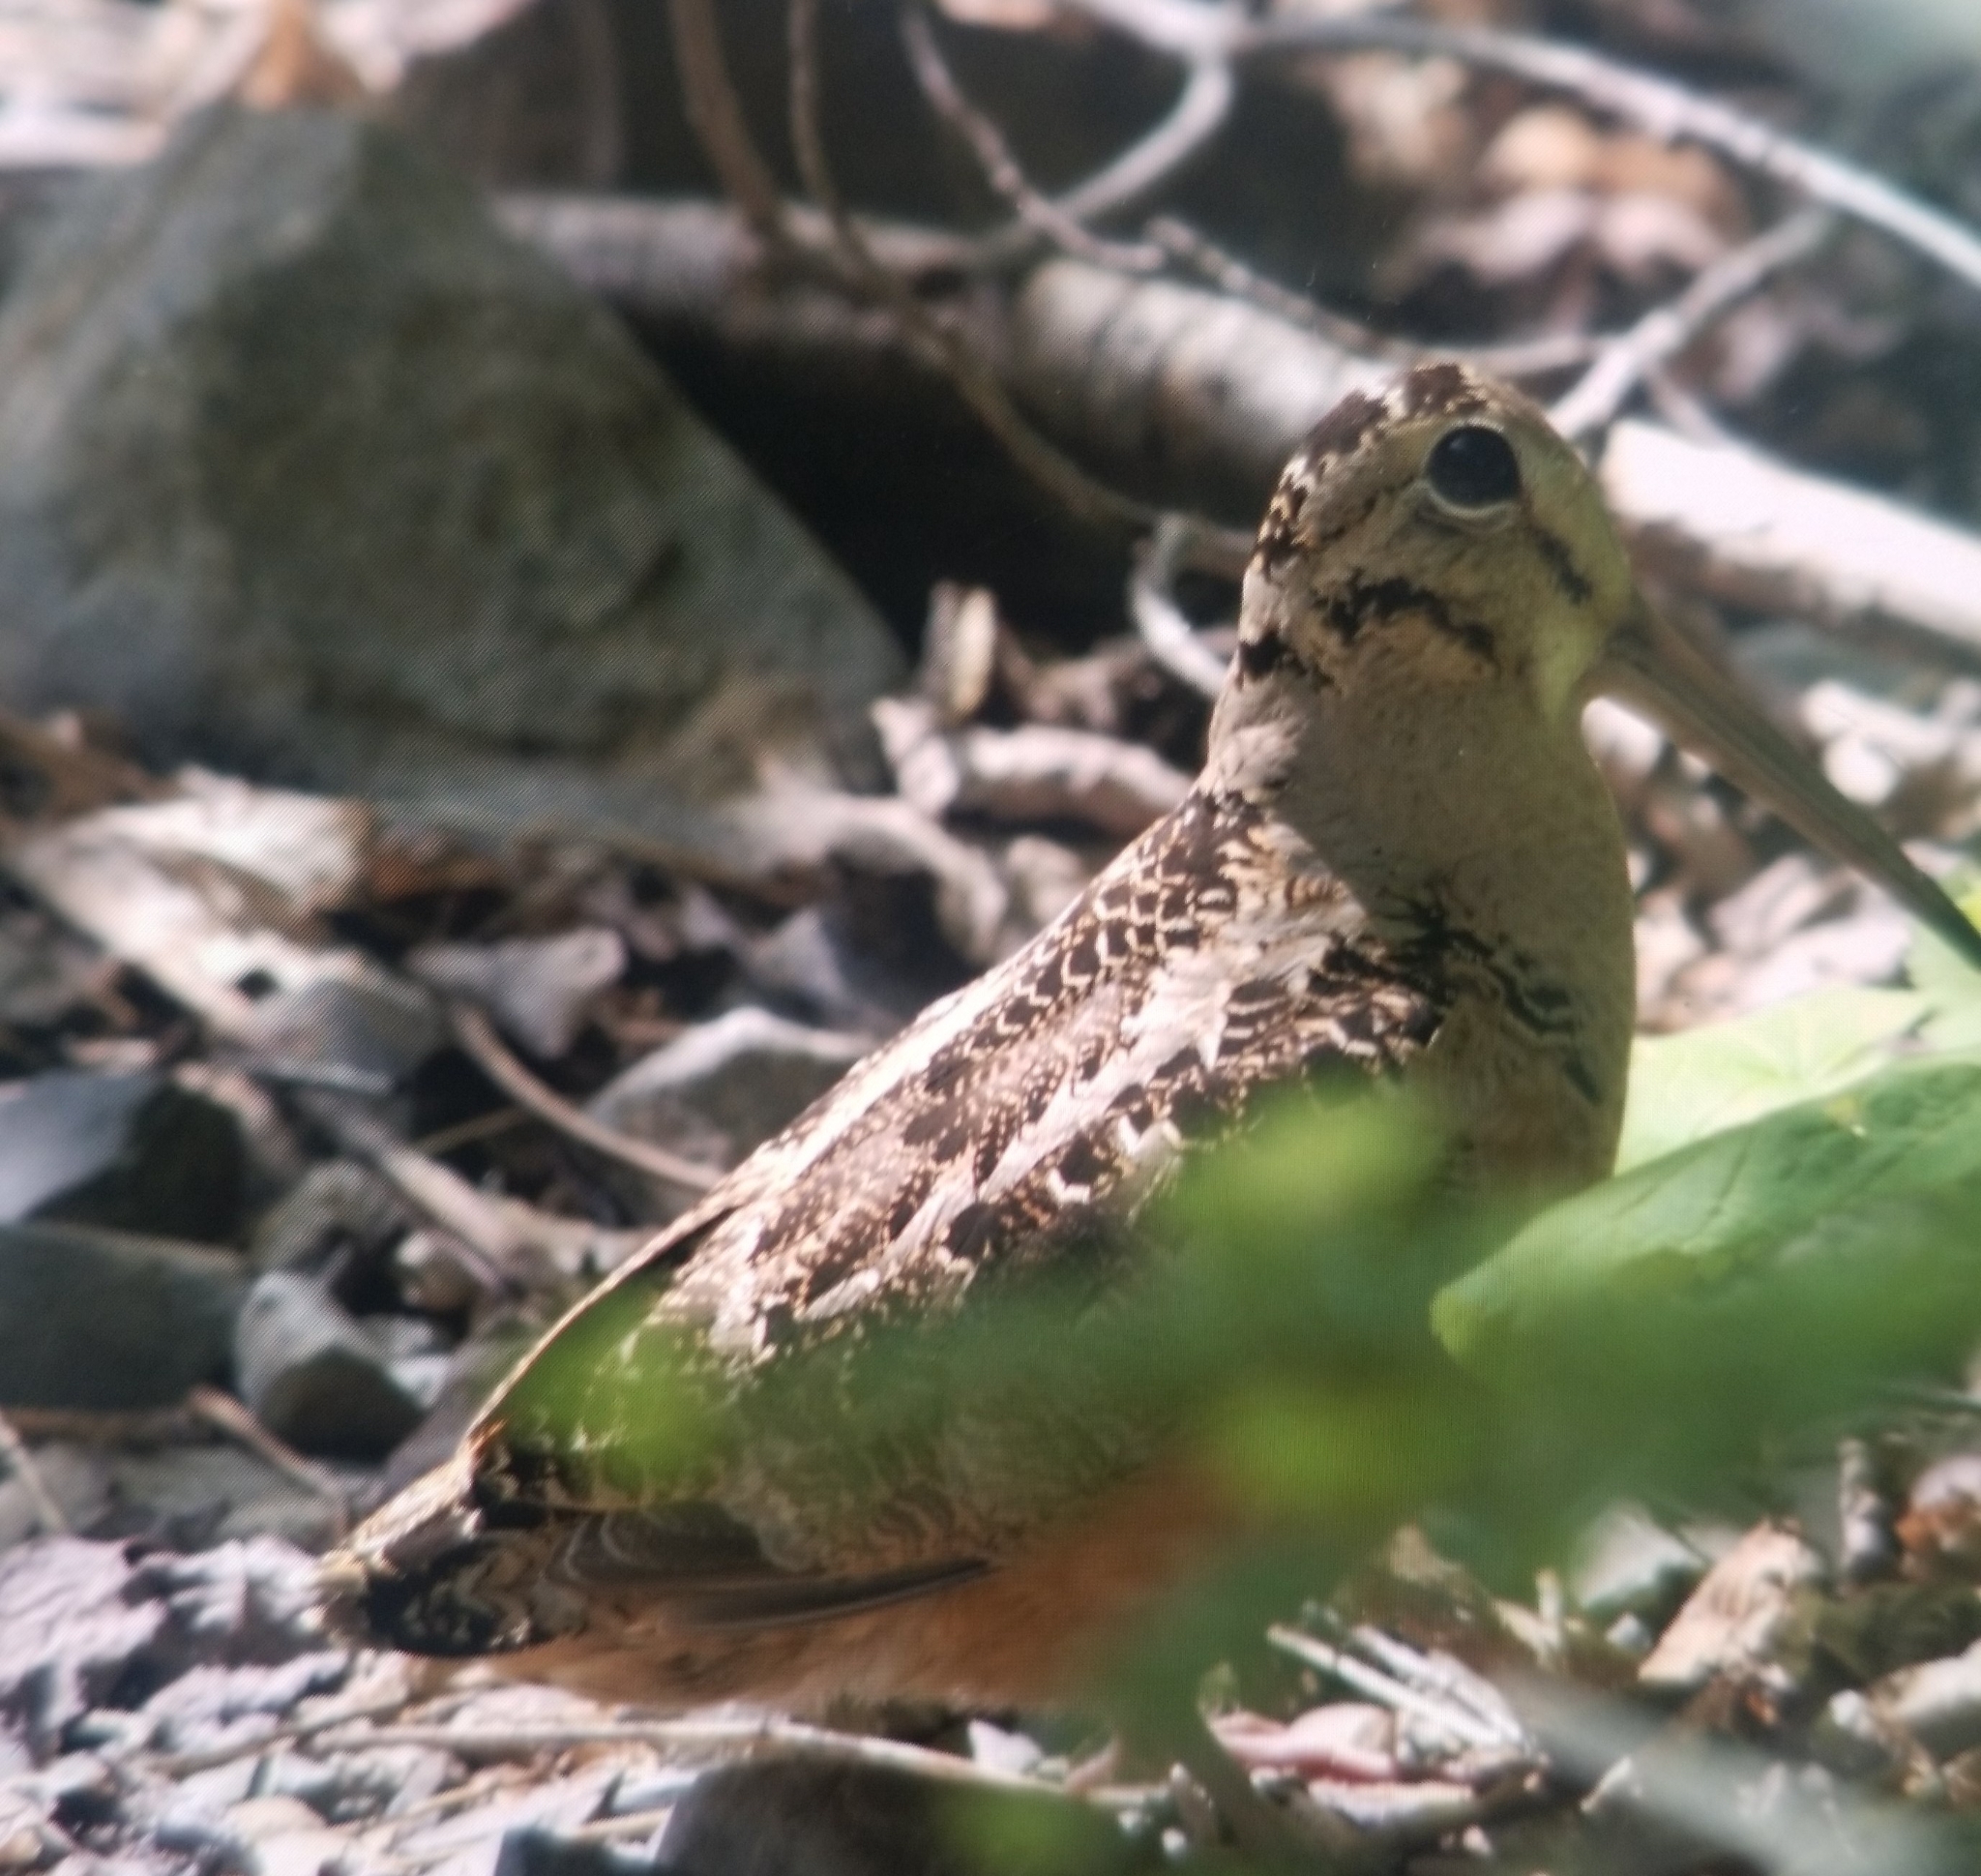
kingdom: Animalia
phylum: Chordata
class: Aves
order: Charadriiformes
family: Scolopacidae
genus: Scolopax
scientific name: Scolopax minor
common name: American woodcock
